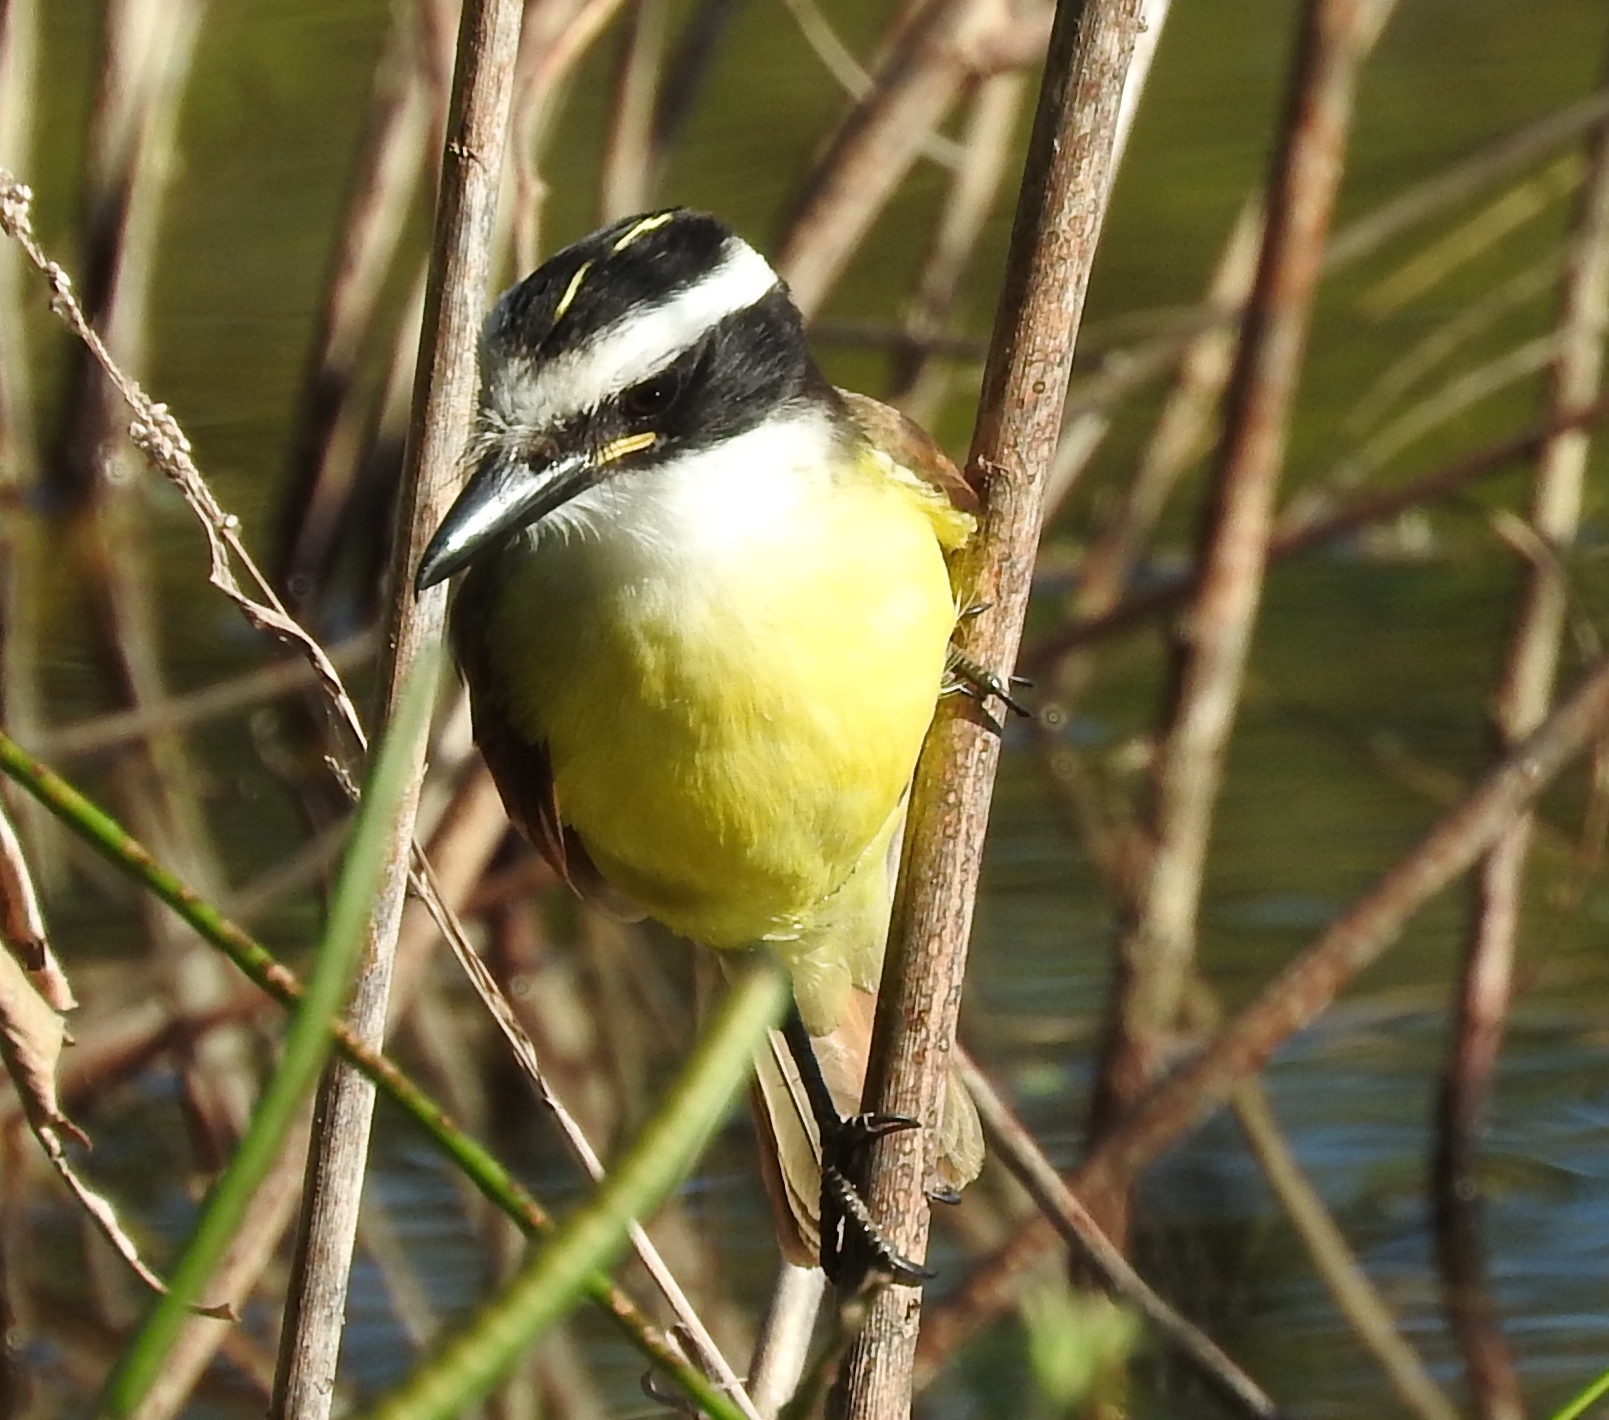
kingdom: Animalia
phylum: Chordata
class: Aves
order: Passeriformes
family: Tyrannidae
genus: Pitangus
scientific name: Pitangus sulphuratus
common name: Great kiskadee
